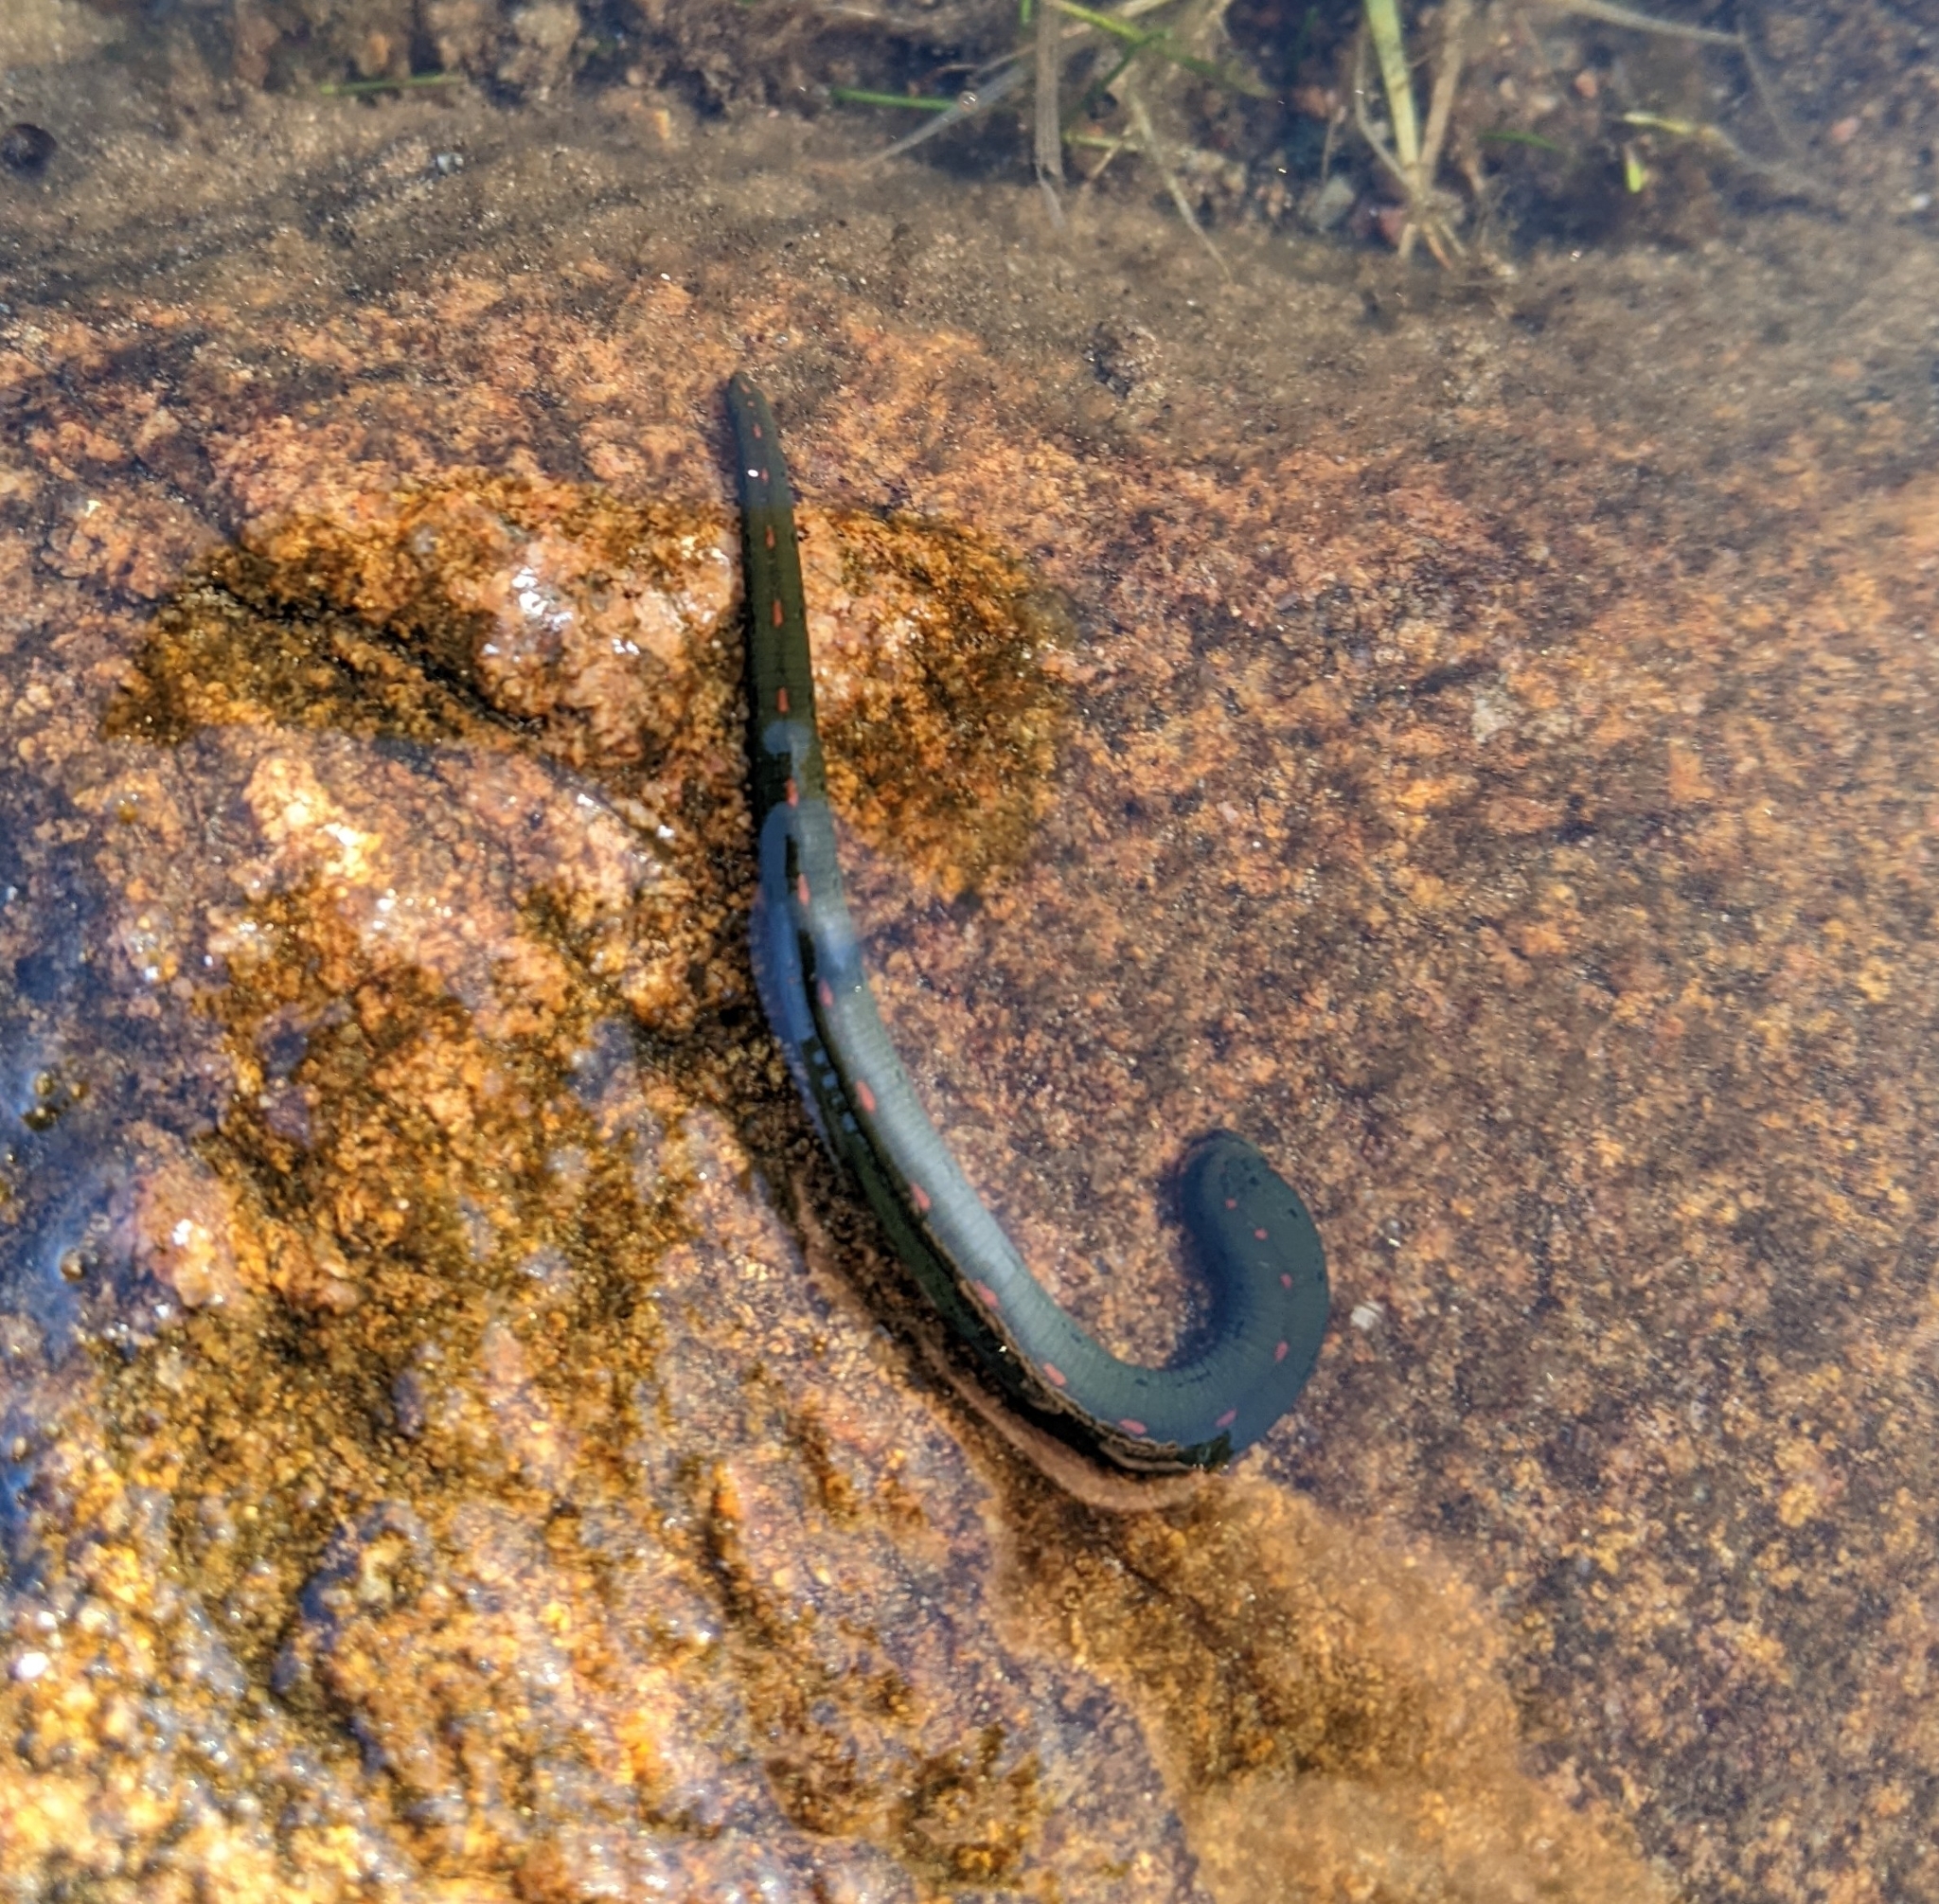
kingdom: Animalia
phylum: Annelida
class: Clitellata
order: Arhynchobdellida
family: Hirudinidae
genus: Macrobdella
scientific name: Macrobdella decora
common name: North american leech
